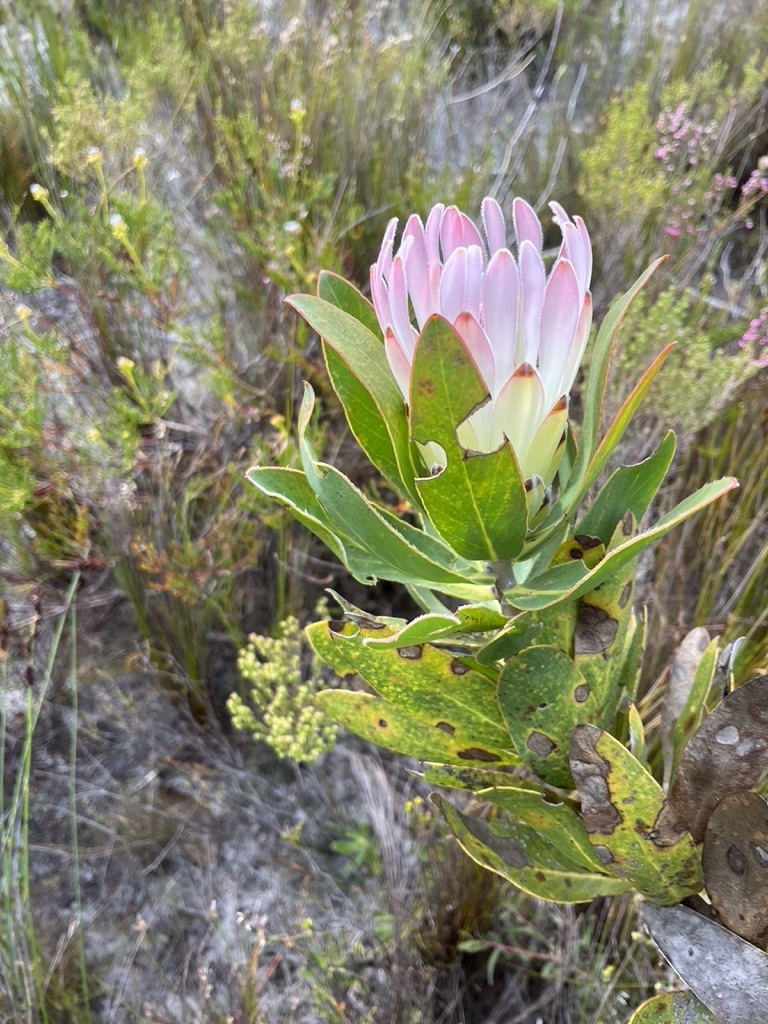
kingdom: Plantae
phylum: Tracheophyta
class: Magnoliopsida
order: Proteales
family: Proteaceae
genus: Protea
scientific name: Protea compacta
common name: Bot river protea
